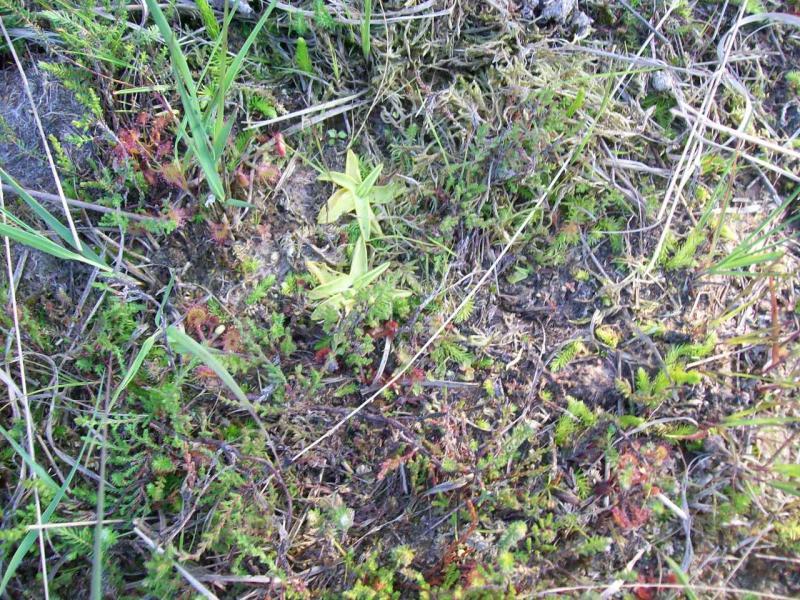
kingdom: Plantae
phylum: Tracheophyta
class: Magnoliopsida
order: Lamiales
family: Lentibulariaceae
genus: Pinguicula
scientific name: Pinguicula vulgaris
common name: Common butterwort
